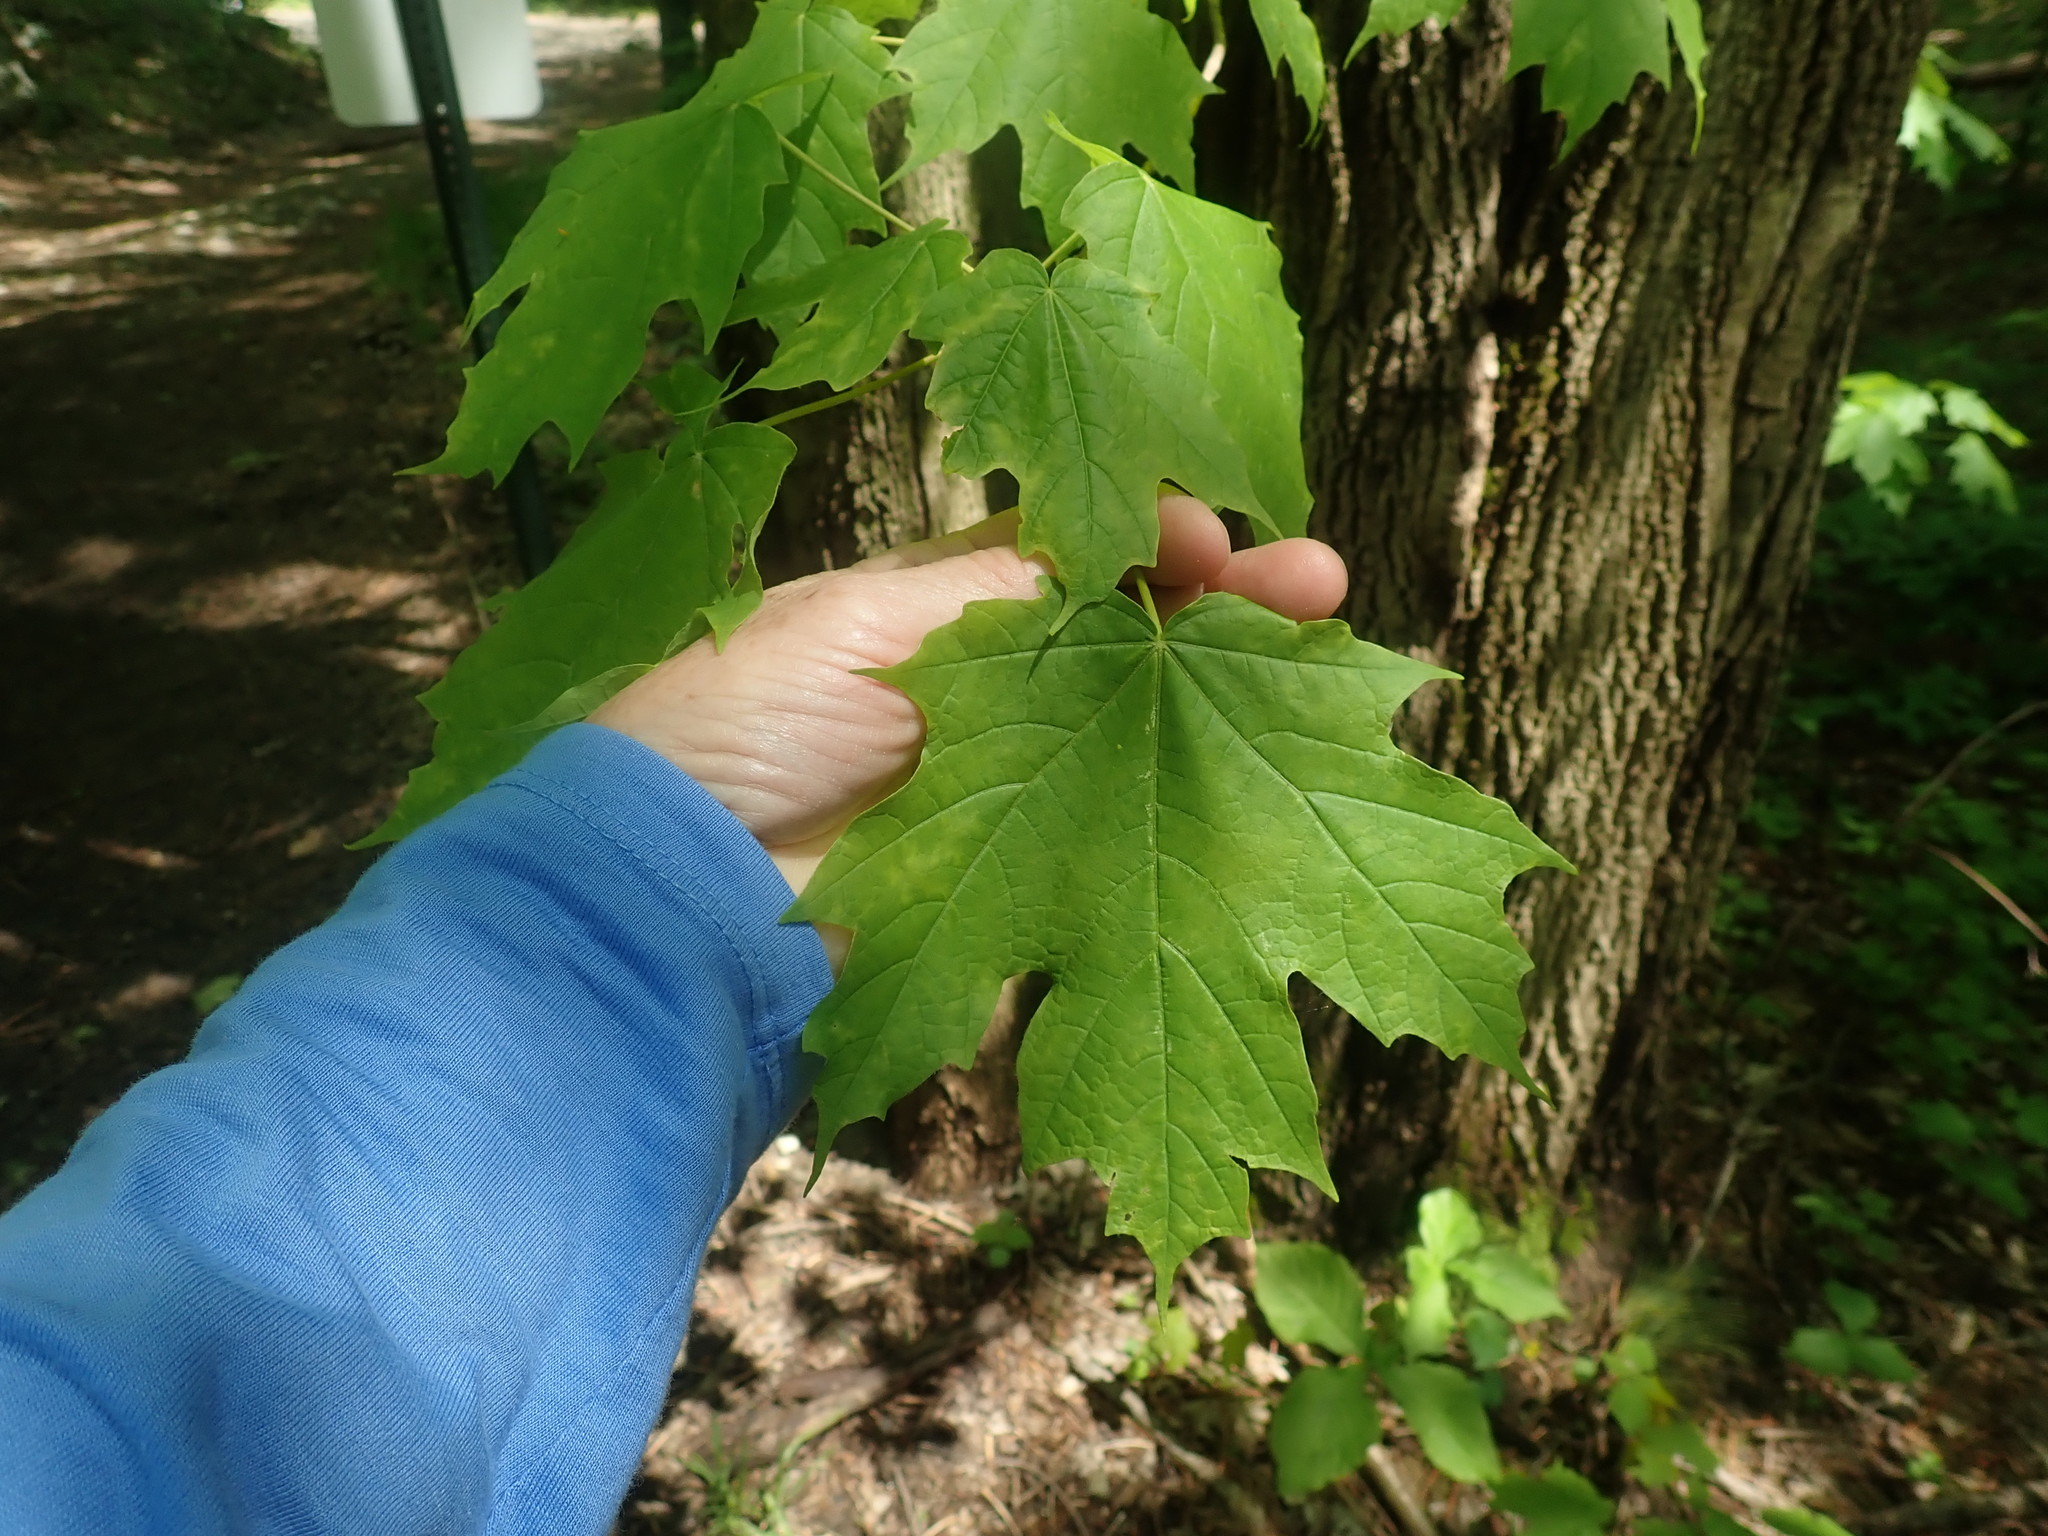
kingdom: Plantae
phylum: Tracheophyta
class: Magnoliopsida
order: Sapindales
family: Sapindaceae
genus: Acer
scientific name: Acer saccharum
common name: Sugar maple
